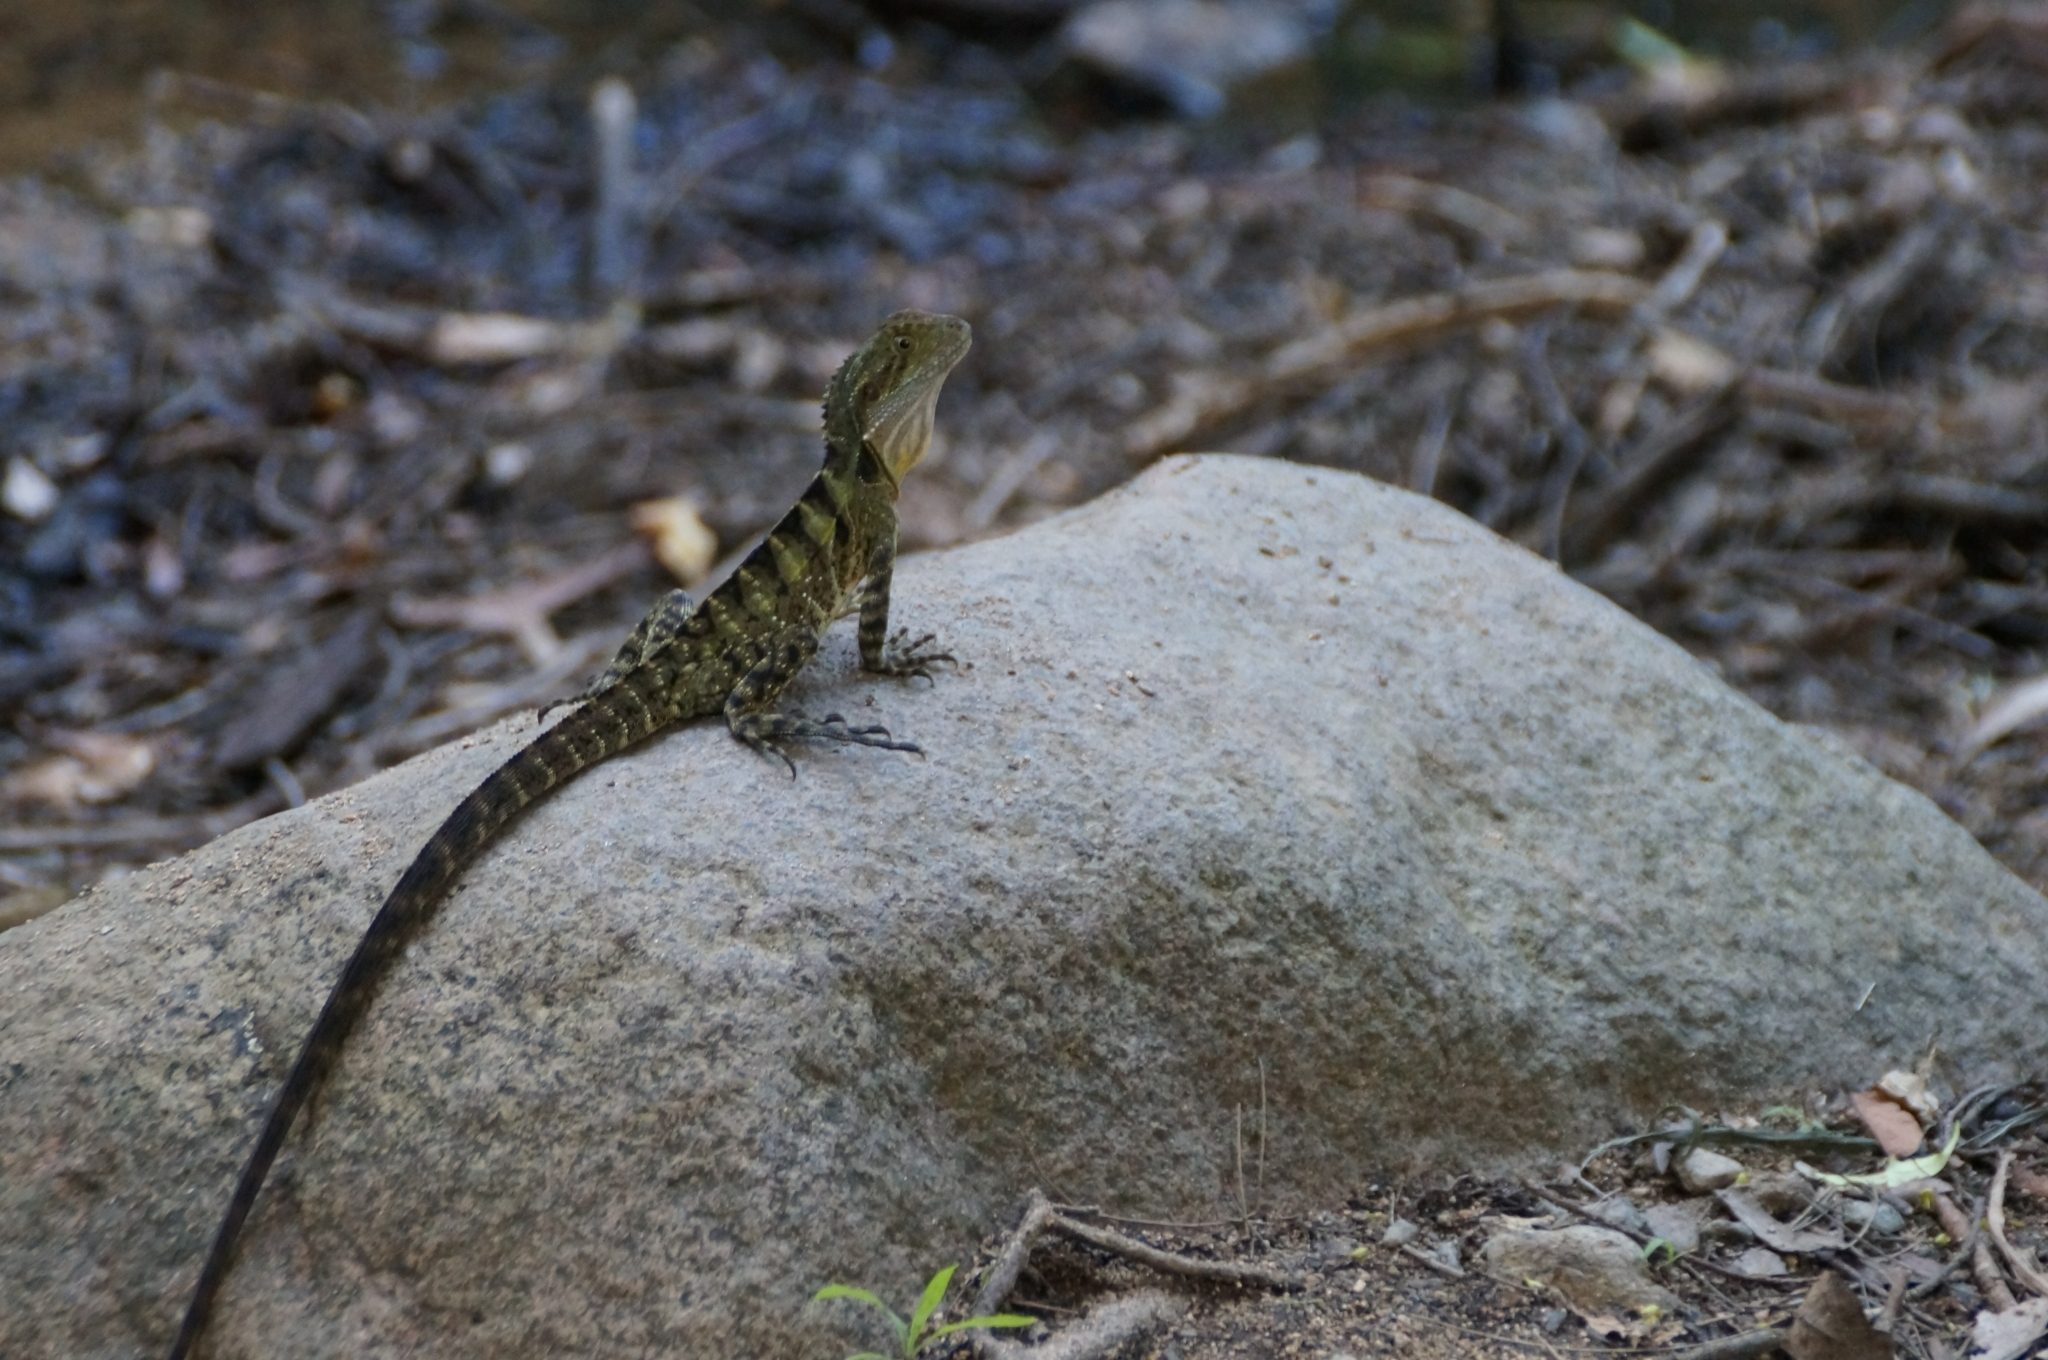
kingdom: Animalia
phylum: Chordata
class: Squamata
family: Agamidae
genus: Intellagama
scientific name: Intellagama lesueurii
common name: Eastern water dragon
